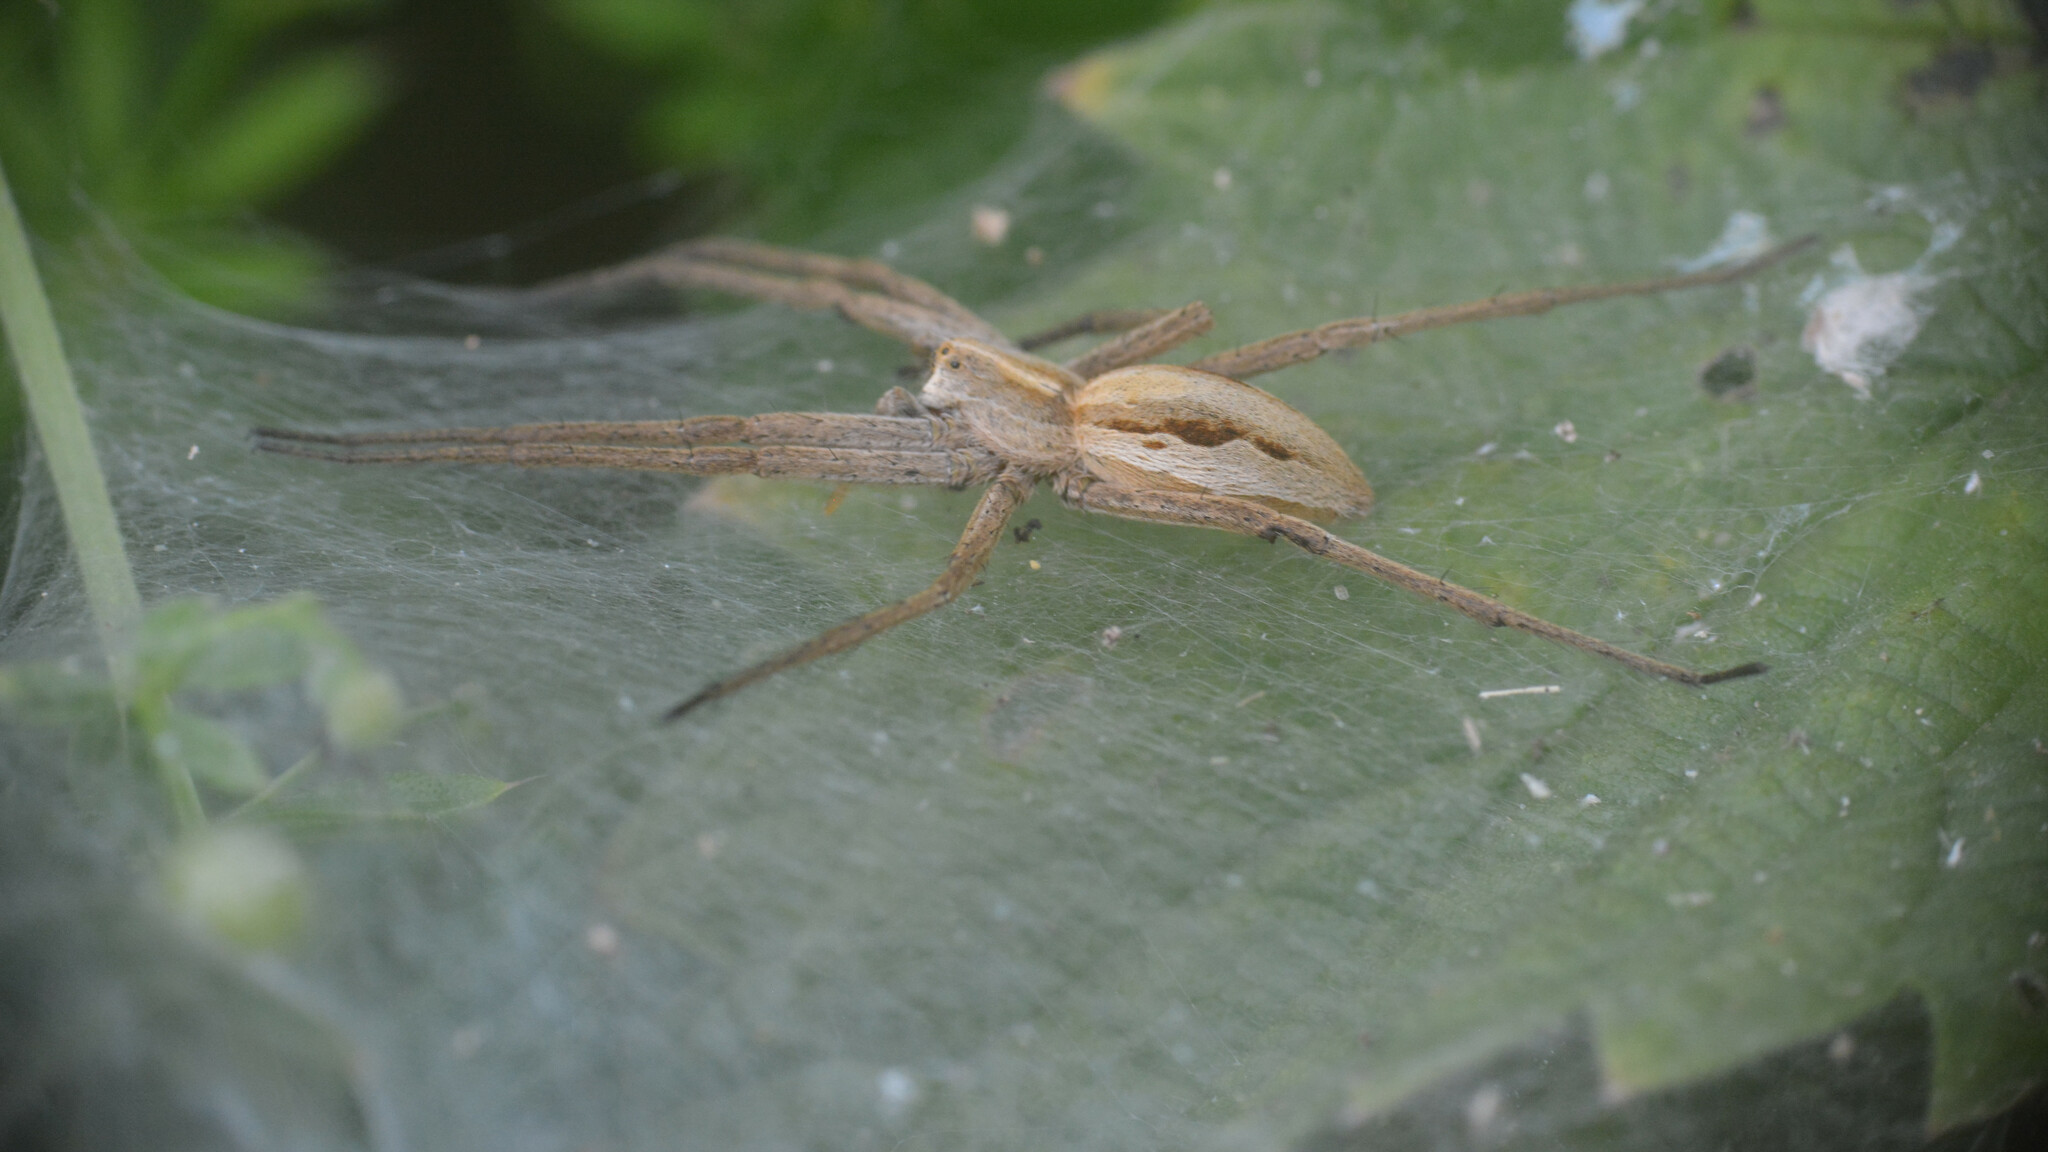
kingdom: Animalia
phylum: Arthropoda
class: Arachnida
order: Araneae
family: Pisauridae
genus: Pisaura
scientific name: Pisaura mirabilis
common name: Tent spider
